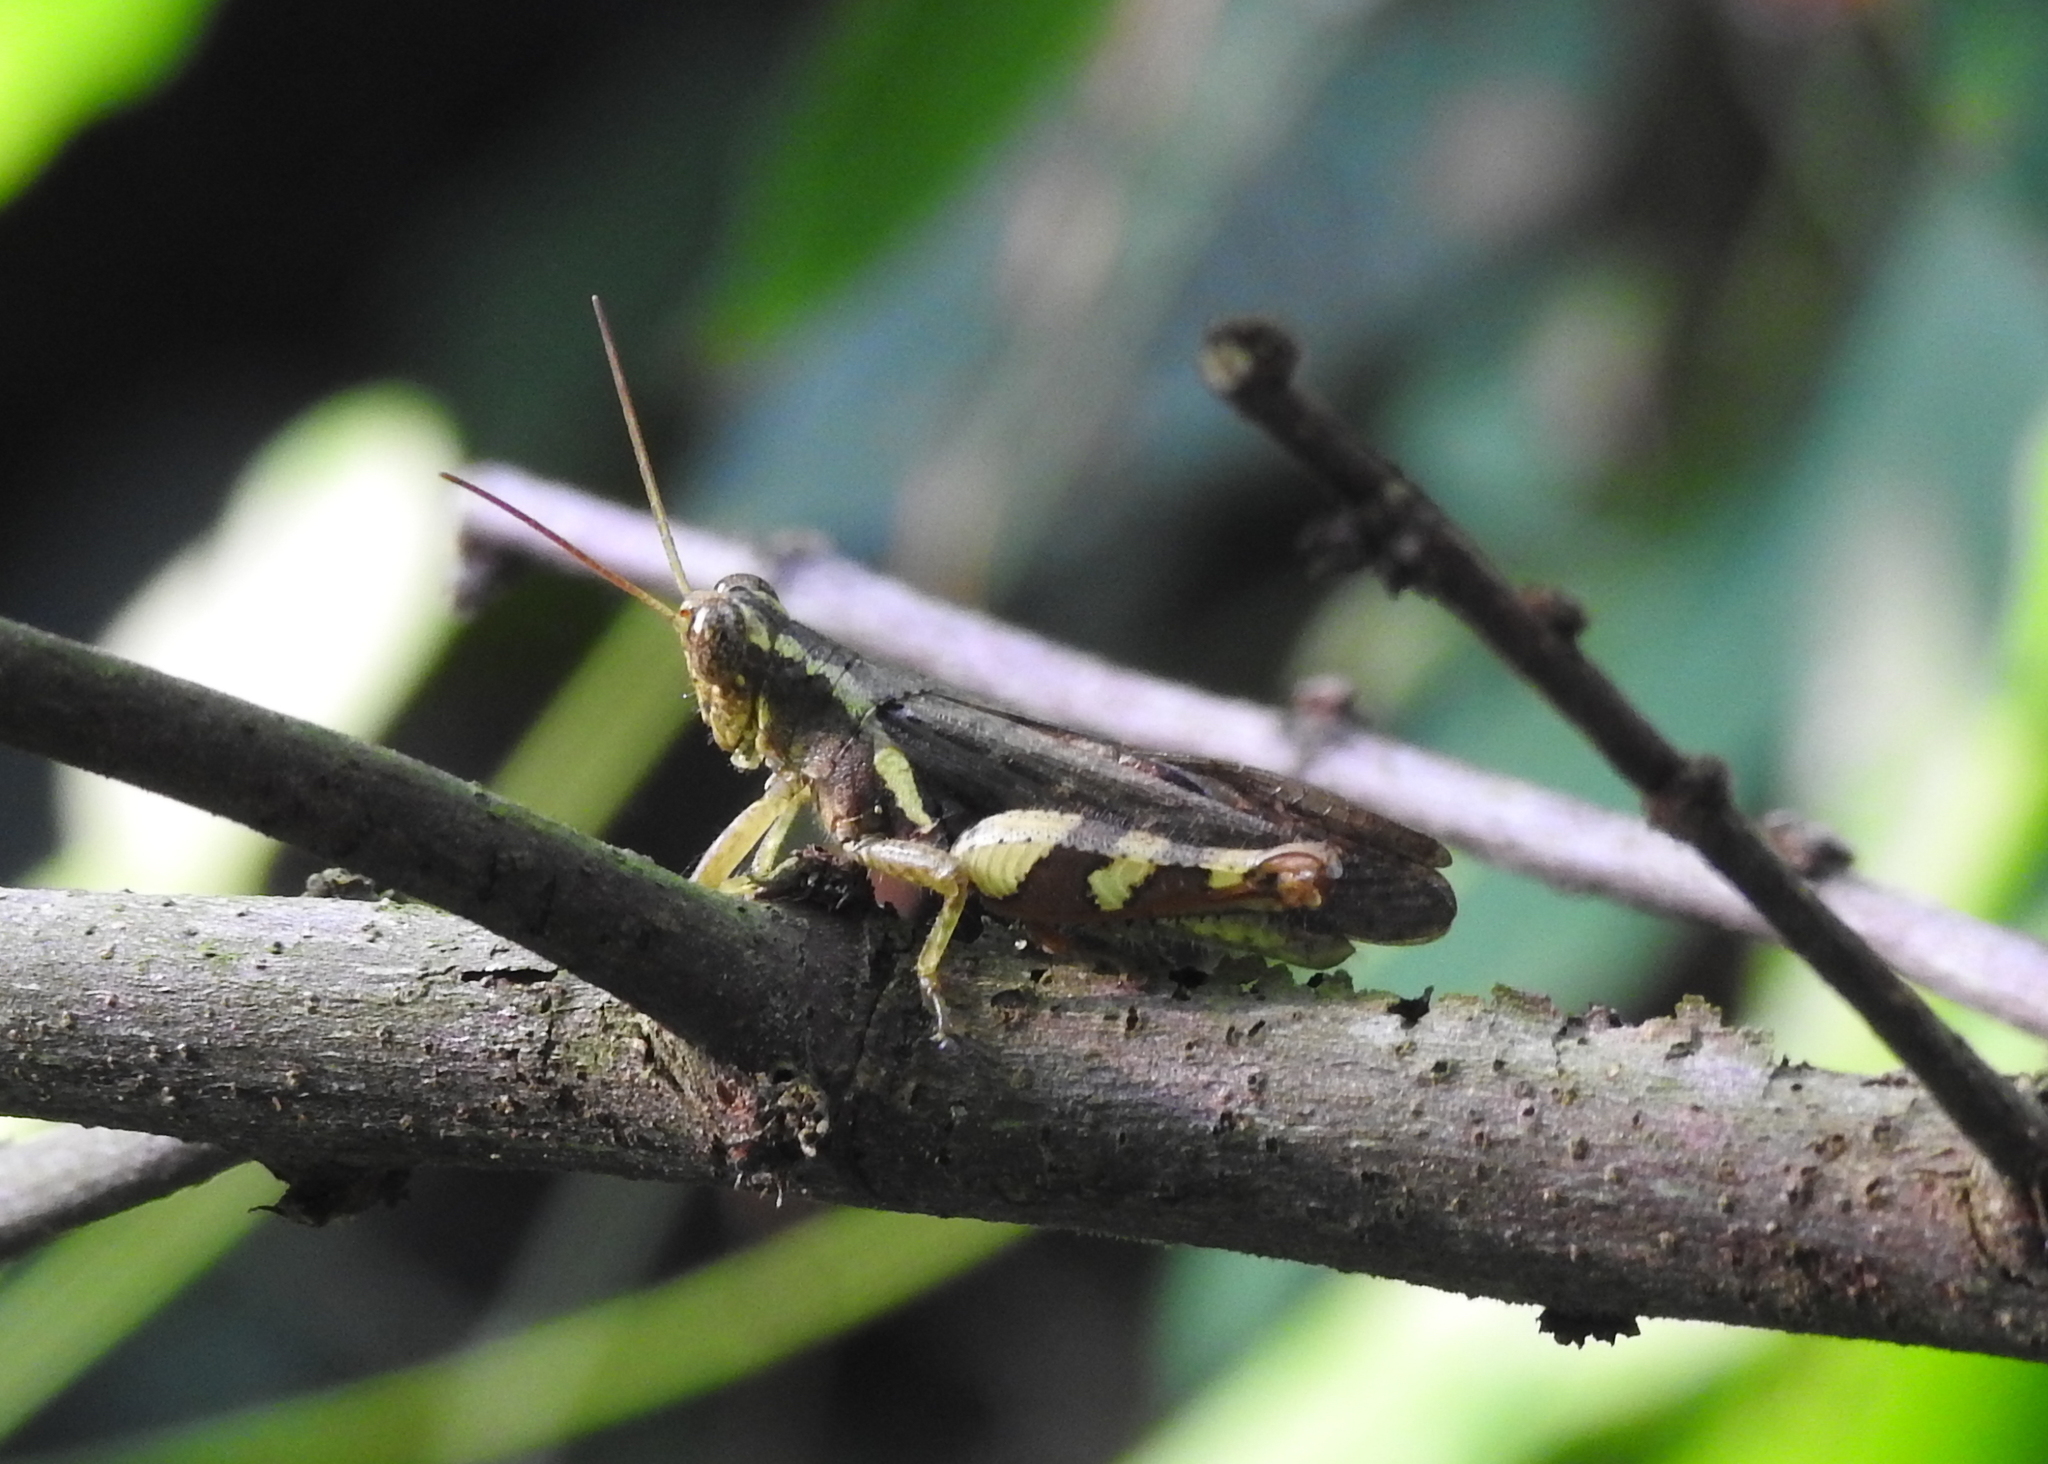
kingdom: Animalia
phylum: Arthropoda
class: Insecta
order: Orthoptera
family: Acrididae
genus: Xenocatantops
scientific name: Xenocatantops humile
